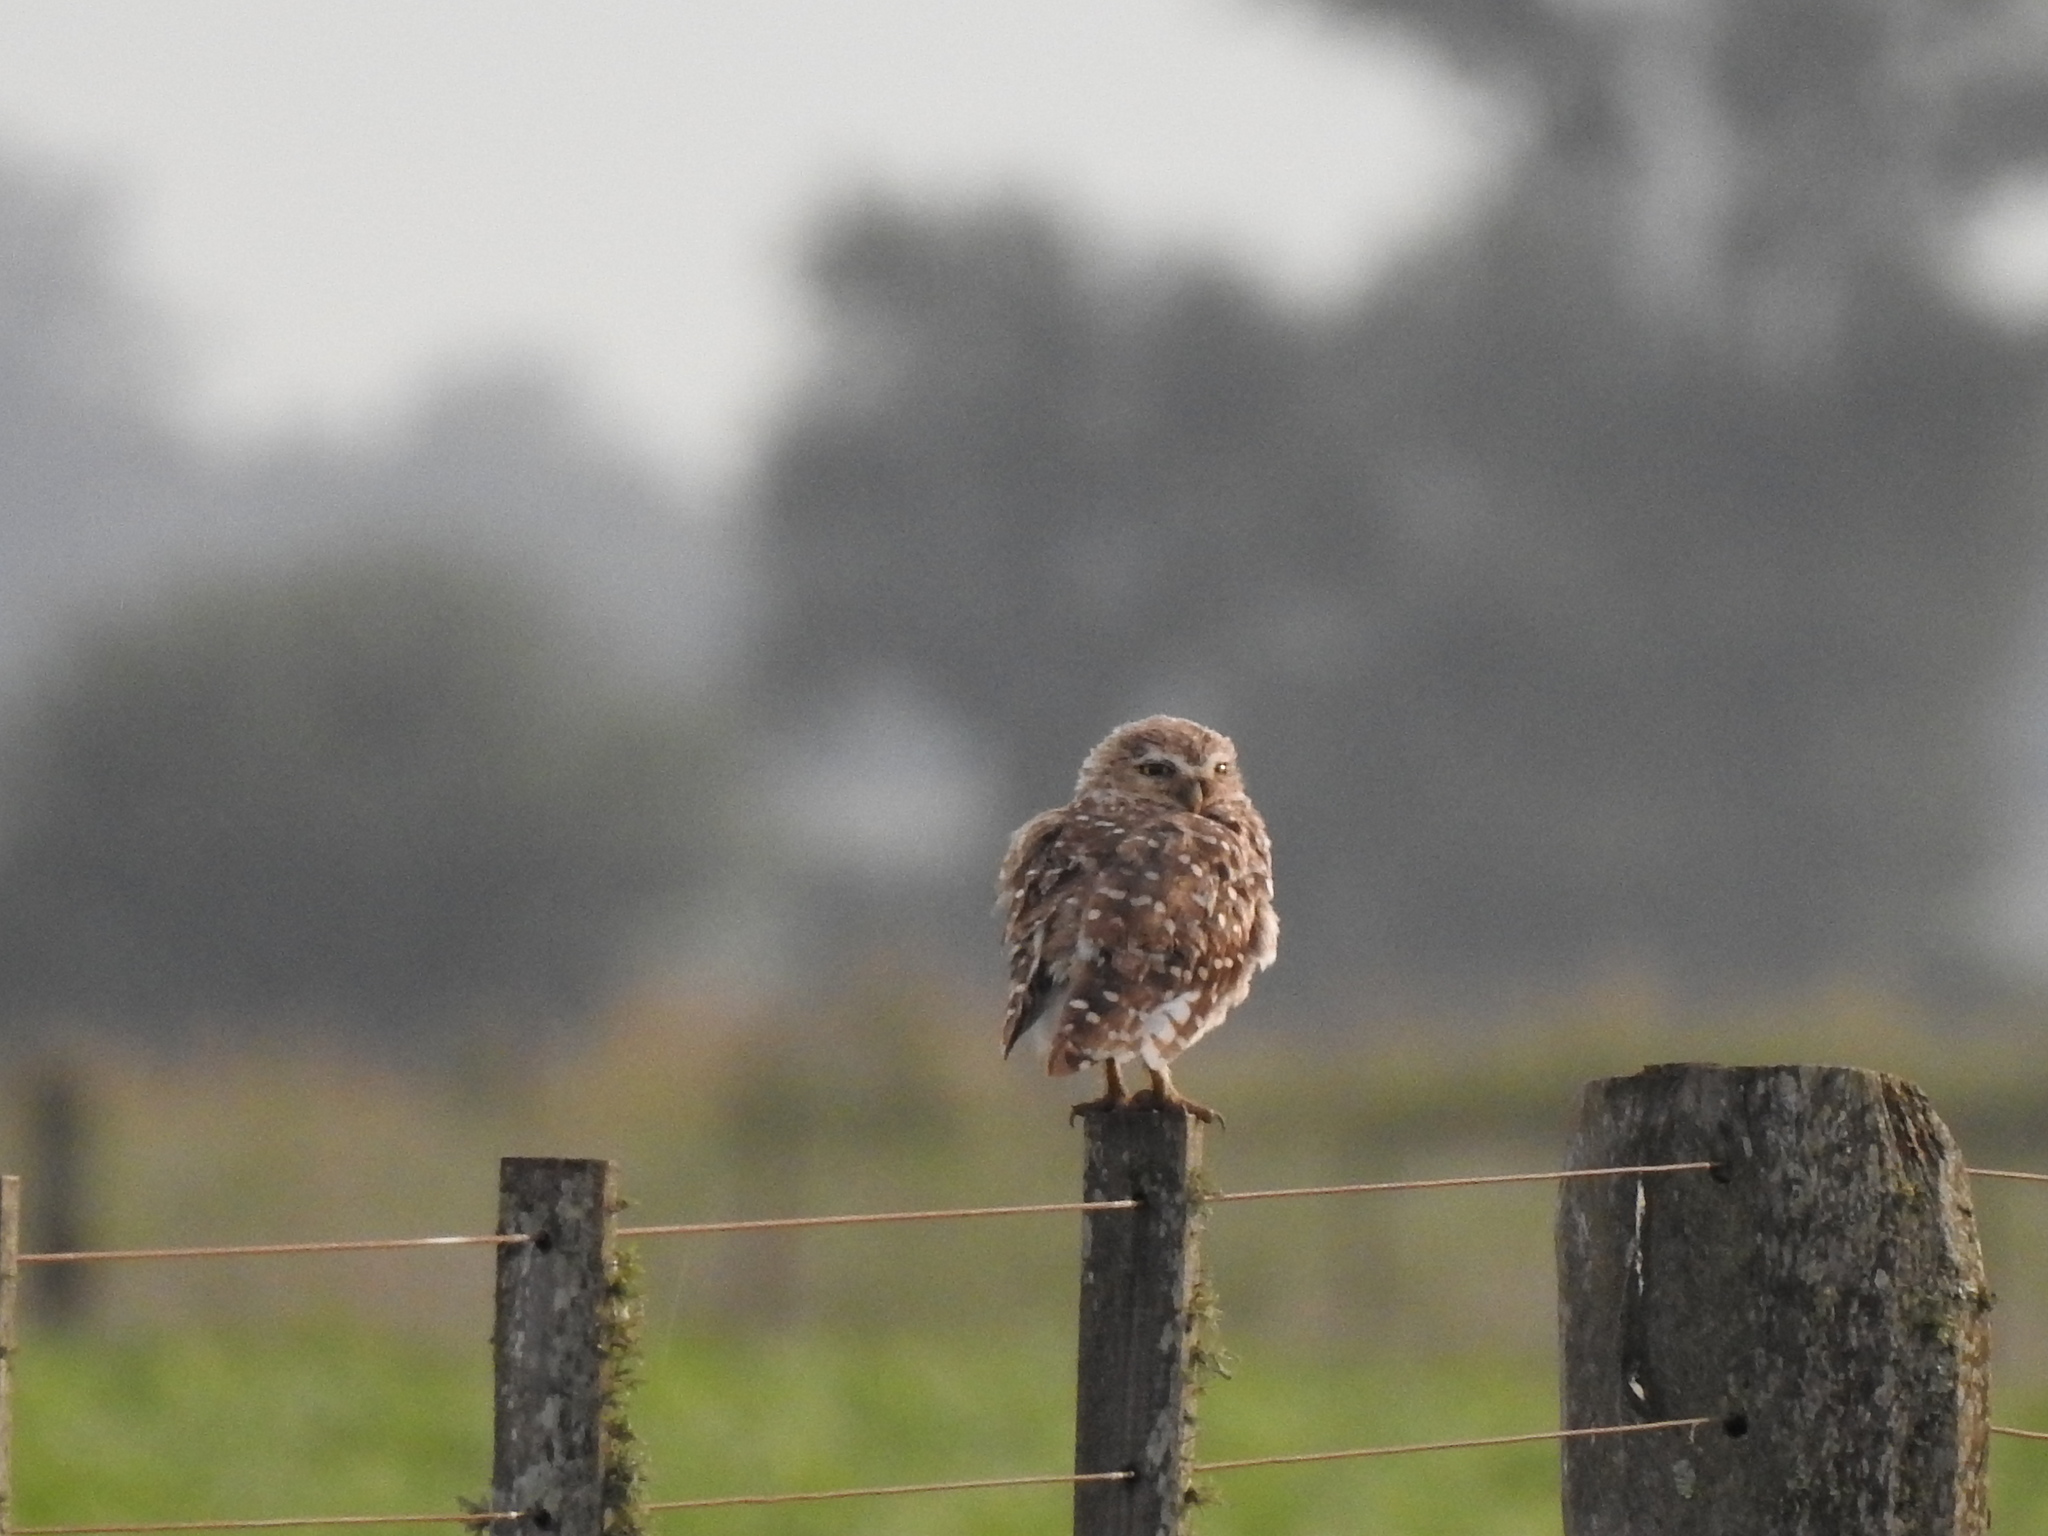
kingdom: Animalia
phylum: Chordata
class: Aves
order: Strigiformes
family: Strigidae
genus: Athene
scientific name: Athene cunicularia
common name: Burrowing owl
